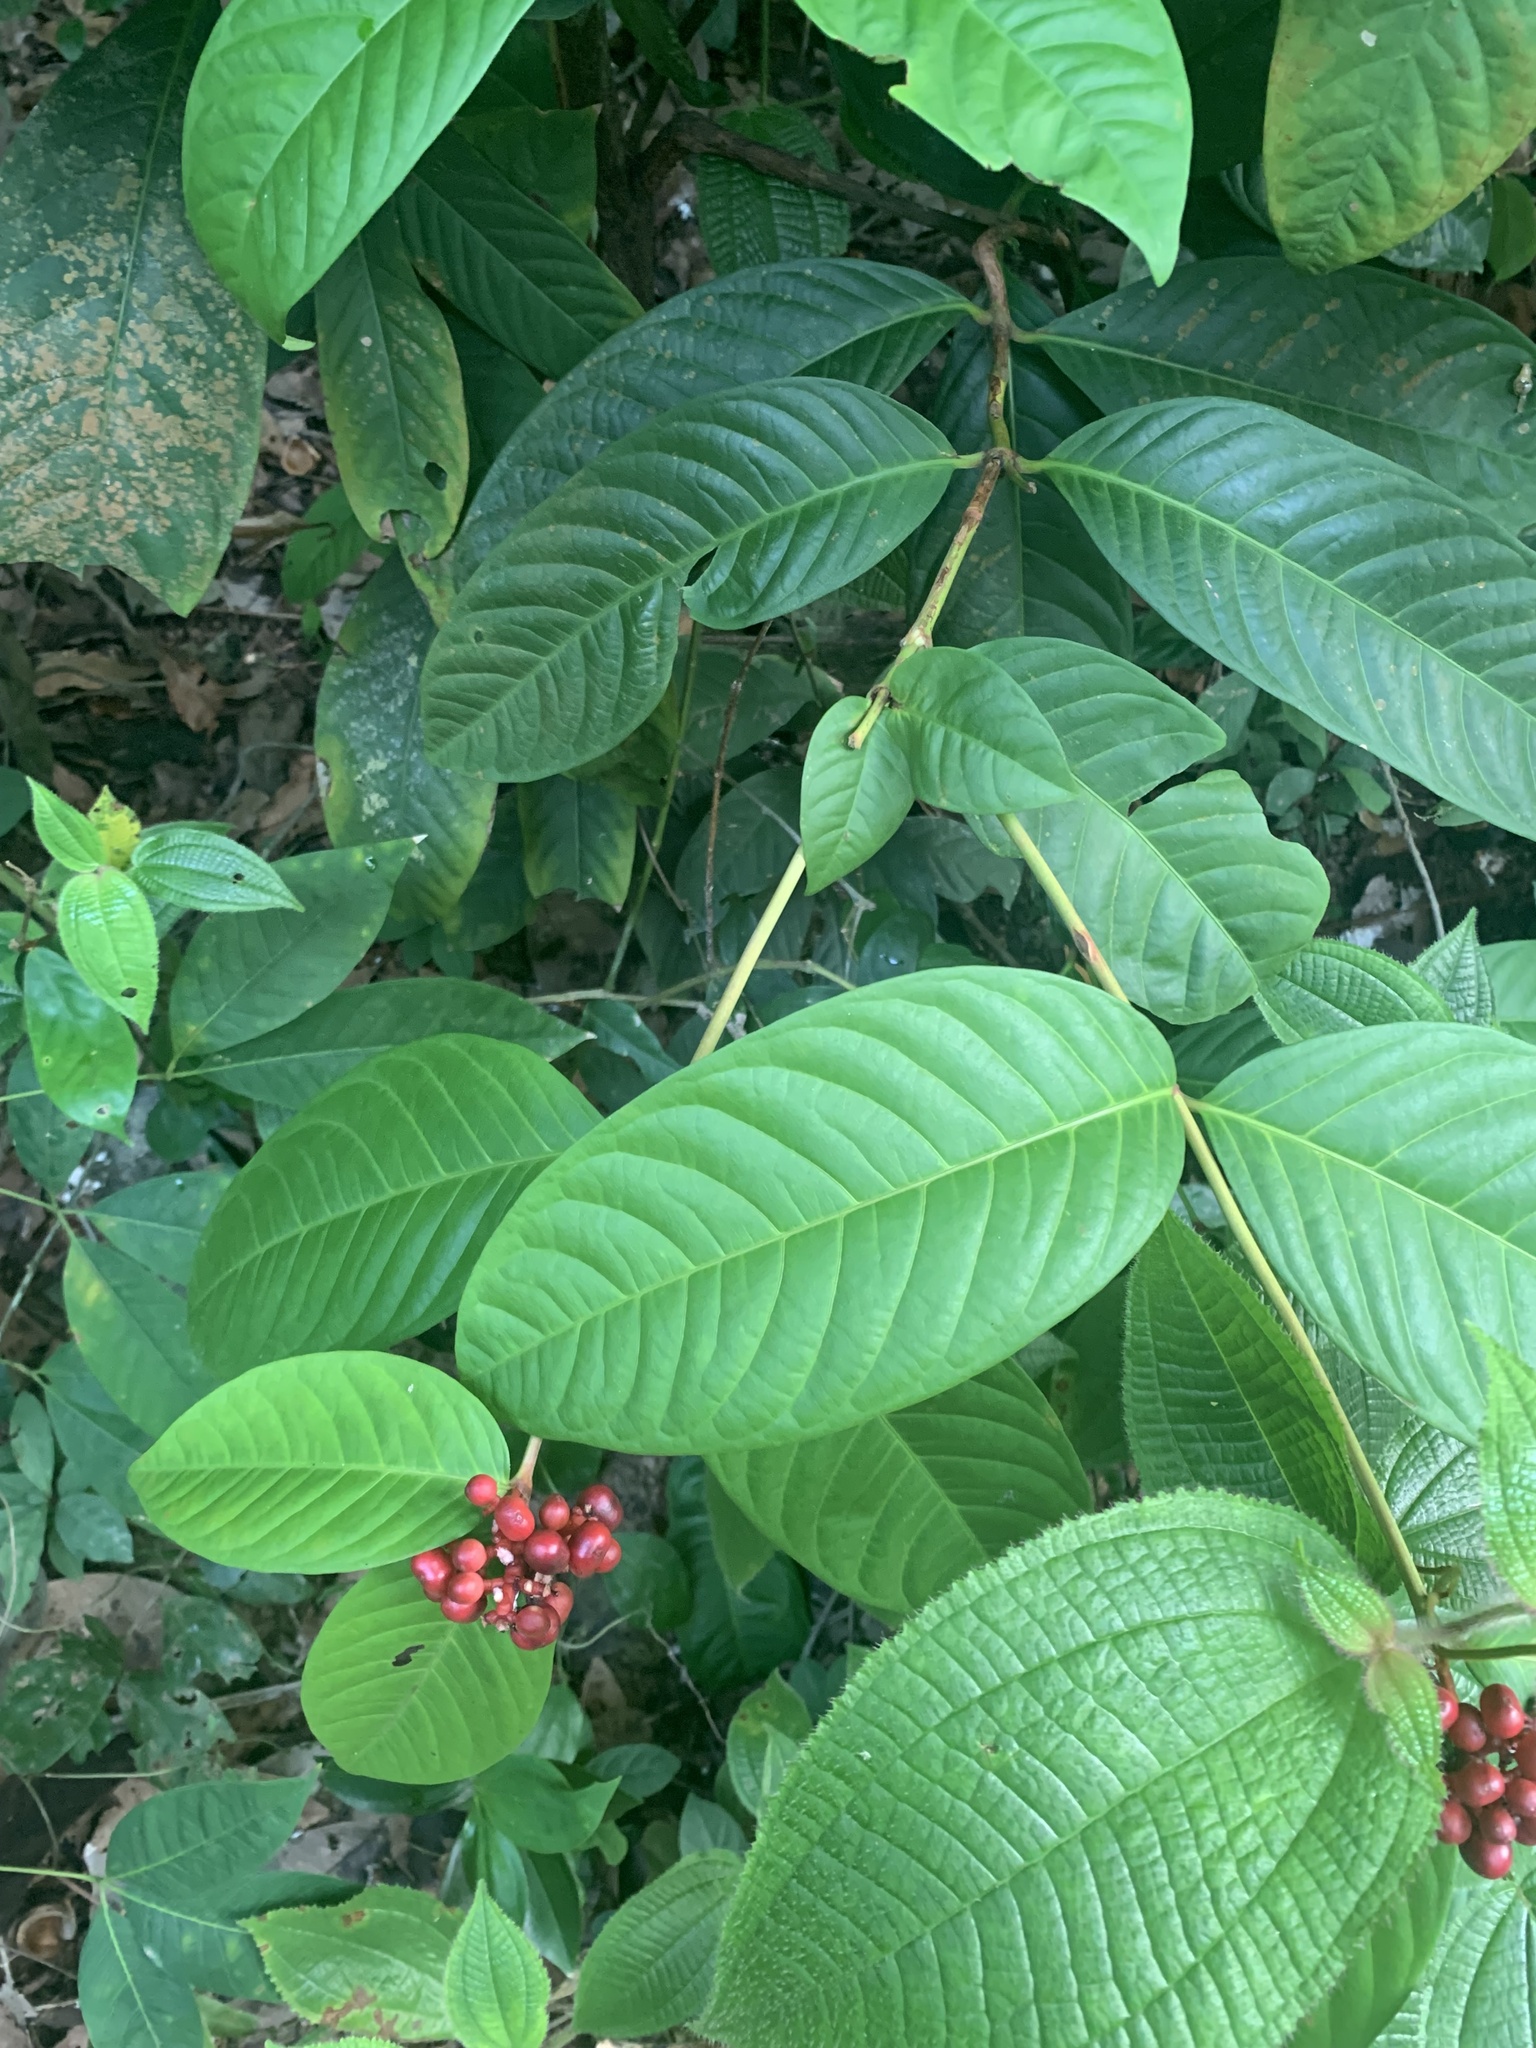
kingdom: Plantae
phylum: Tracheophyta
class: Magnoliopsida
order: Gentianales
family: Rubiaceae
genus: Ixora
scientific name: Ixora congesta
